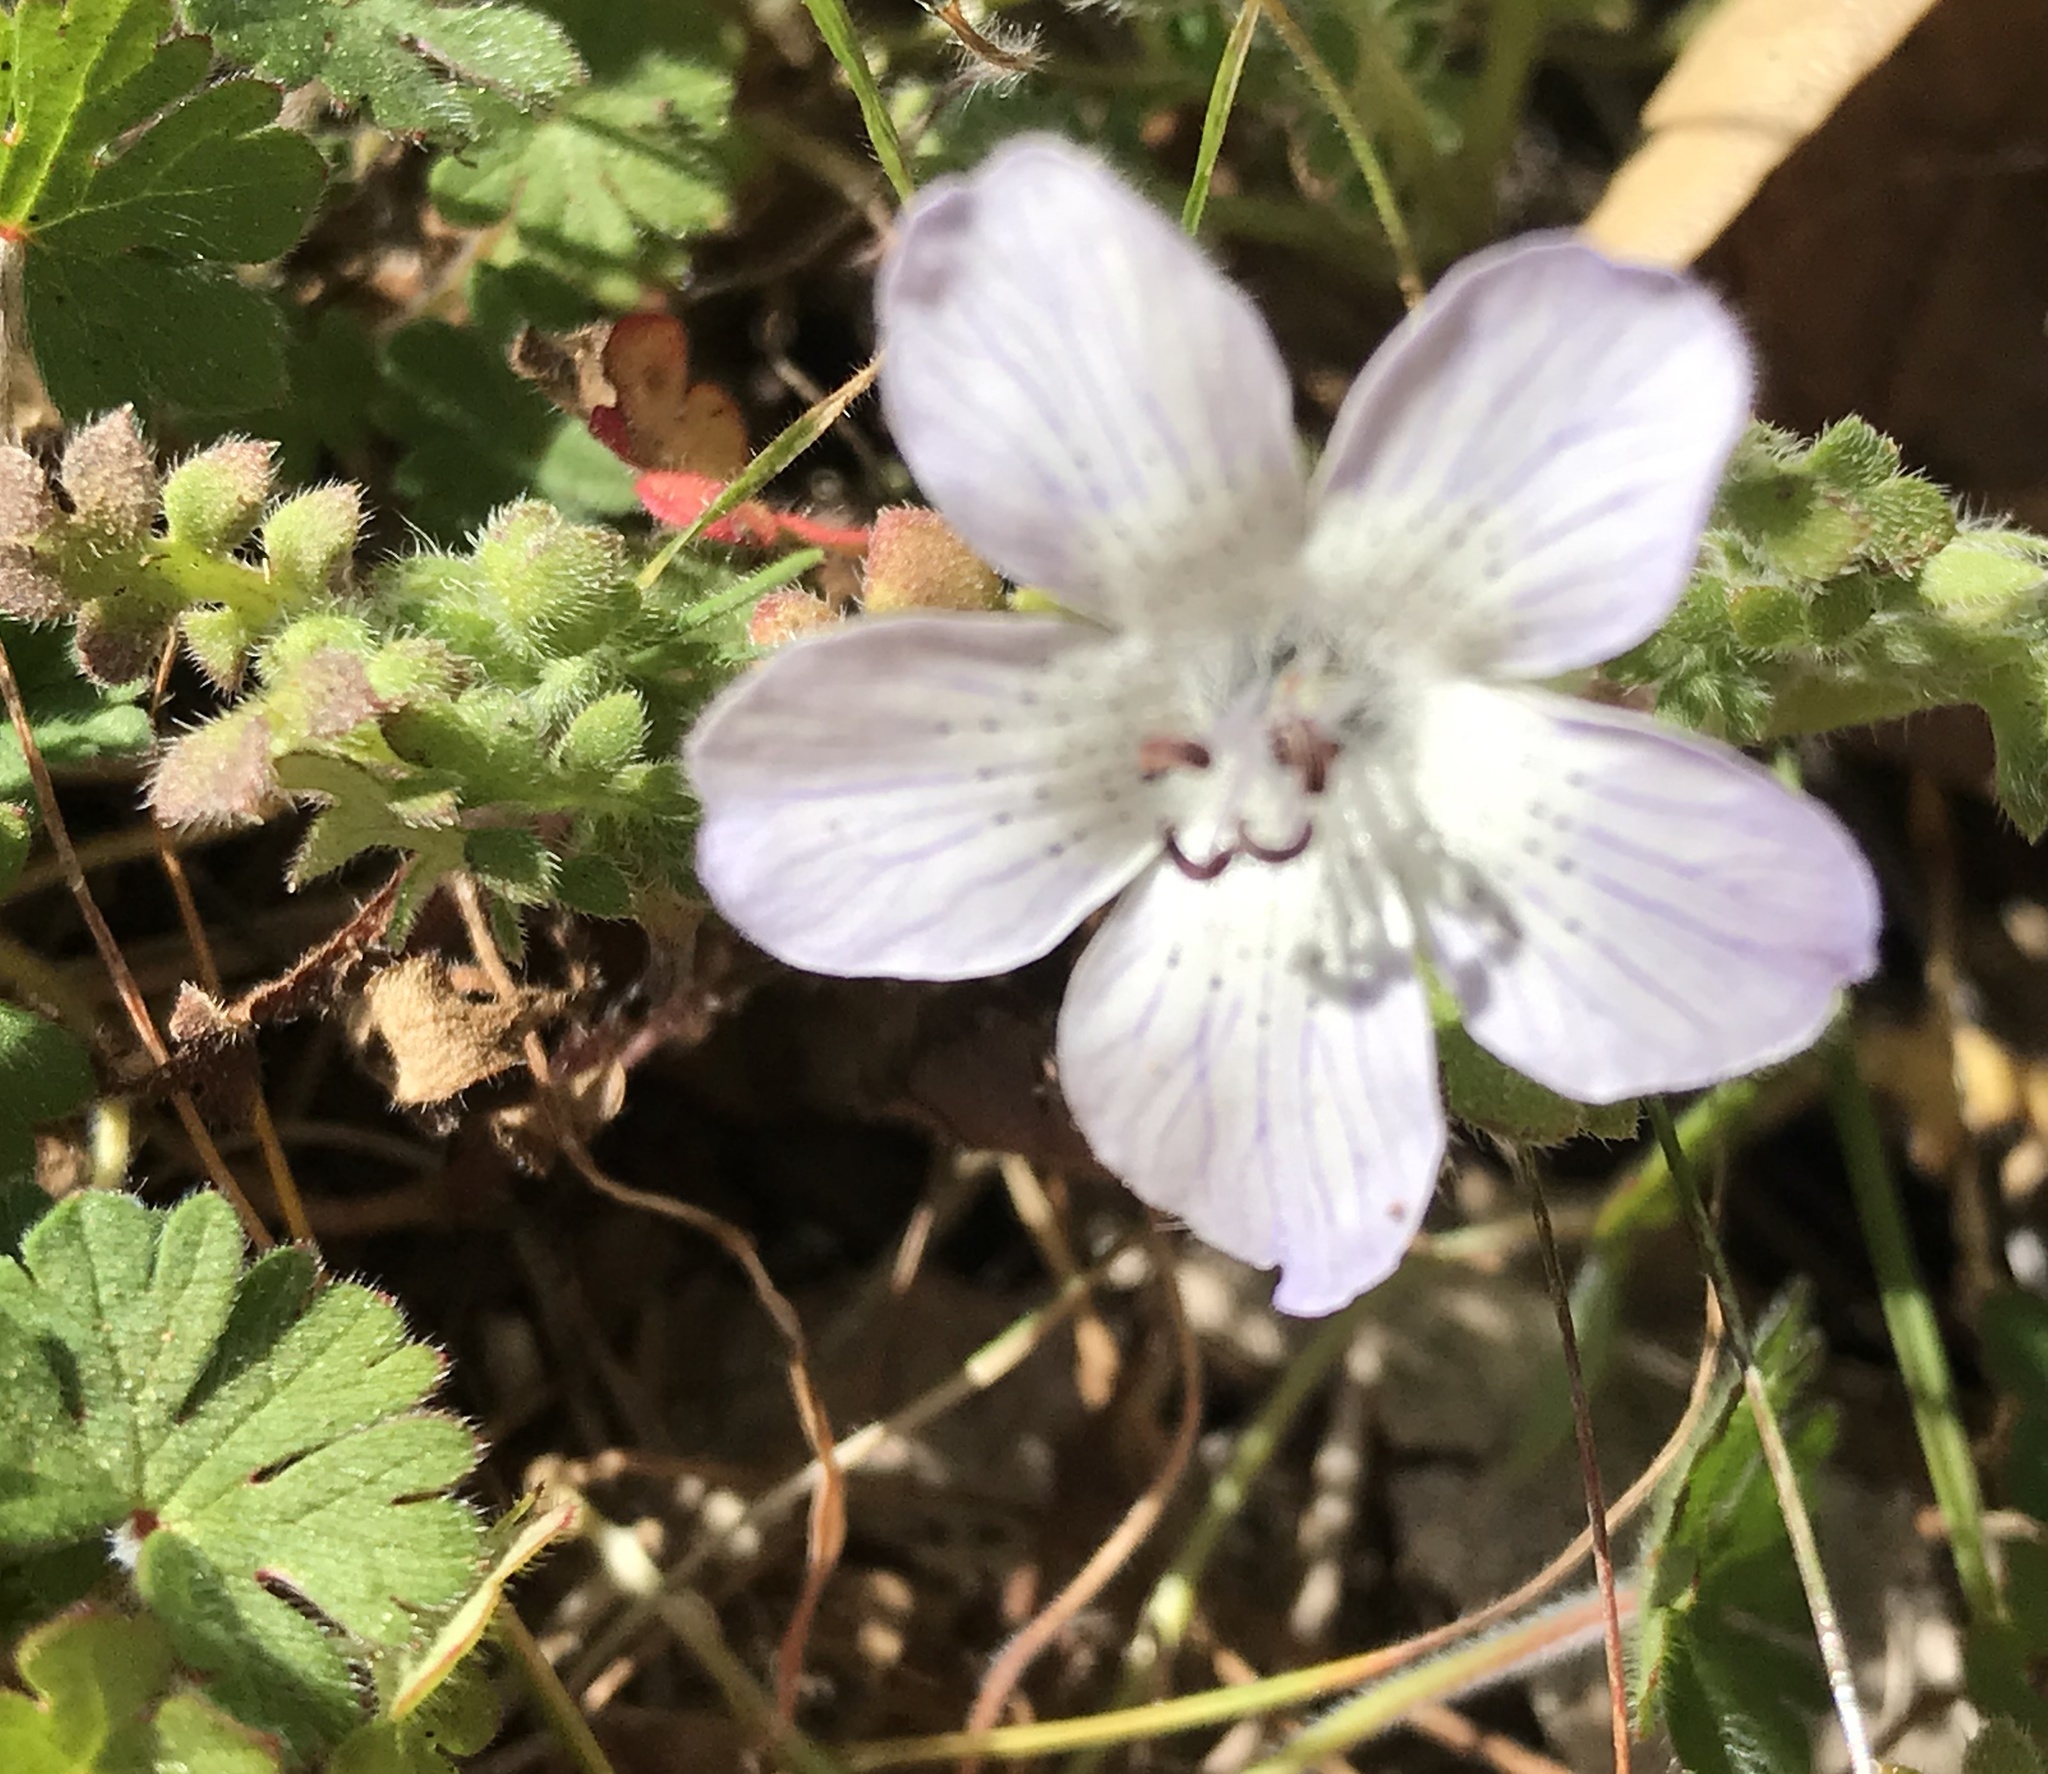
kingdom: Plantae
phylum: Tracheophyta
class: Magnoliopsida
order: Boraginales
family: Hydrophyllaceae
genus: Nemophila
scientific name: Nemophila menziesii
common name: Baby's-blue-eyes
